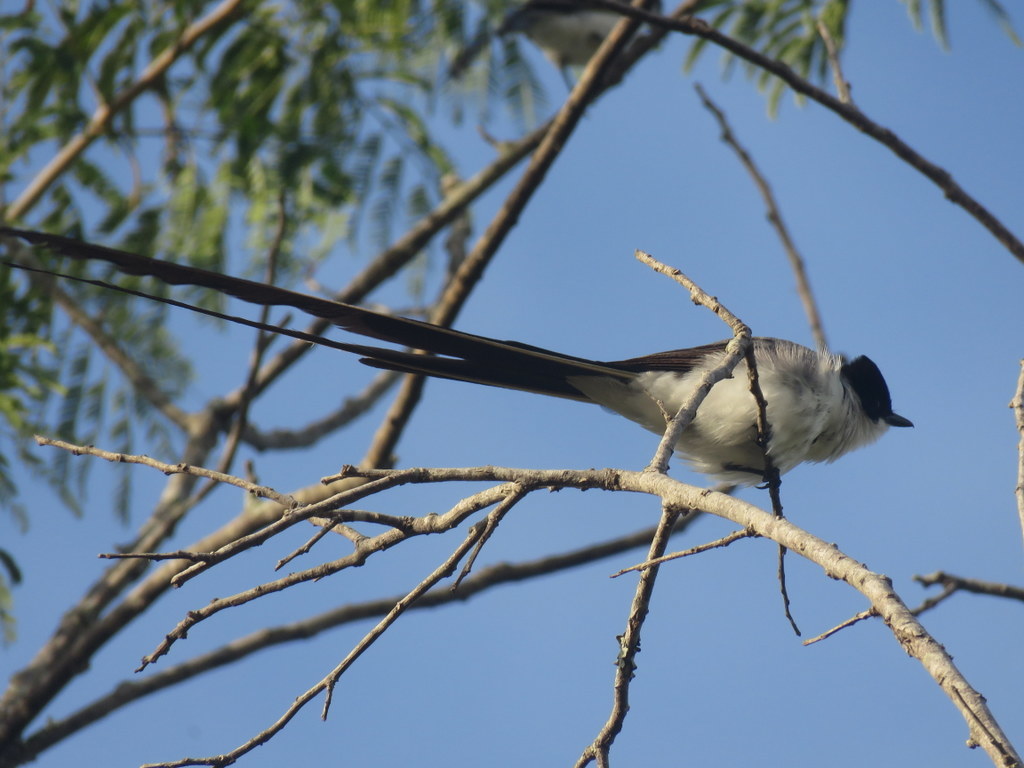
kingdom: Animalia
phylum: Chordata
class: Aves
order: Passeriformes
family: Tyrannidae
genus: Tyrannus
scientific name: Tyrannus savana
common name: Fork-tailed flycatcher
